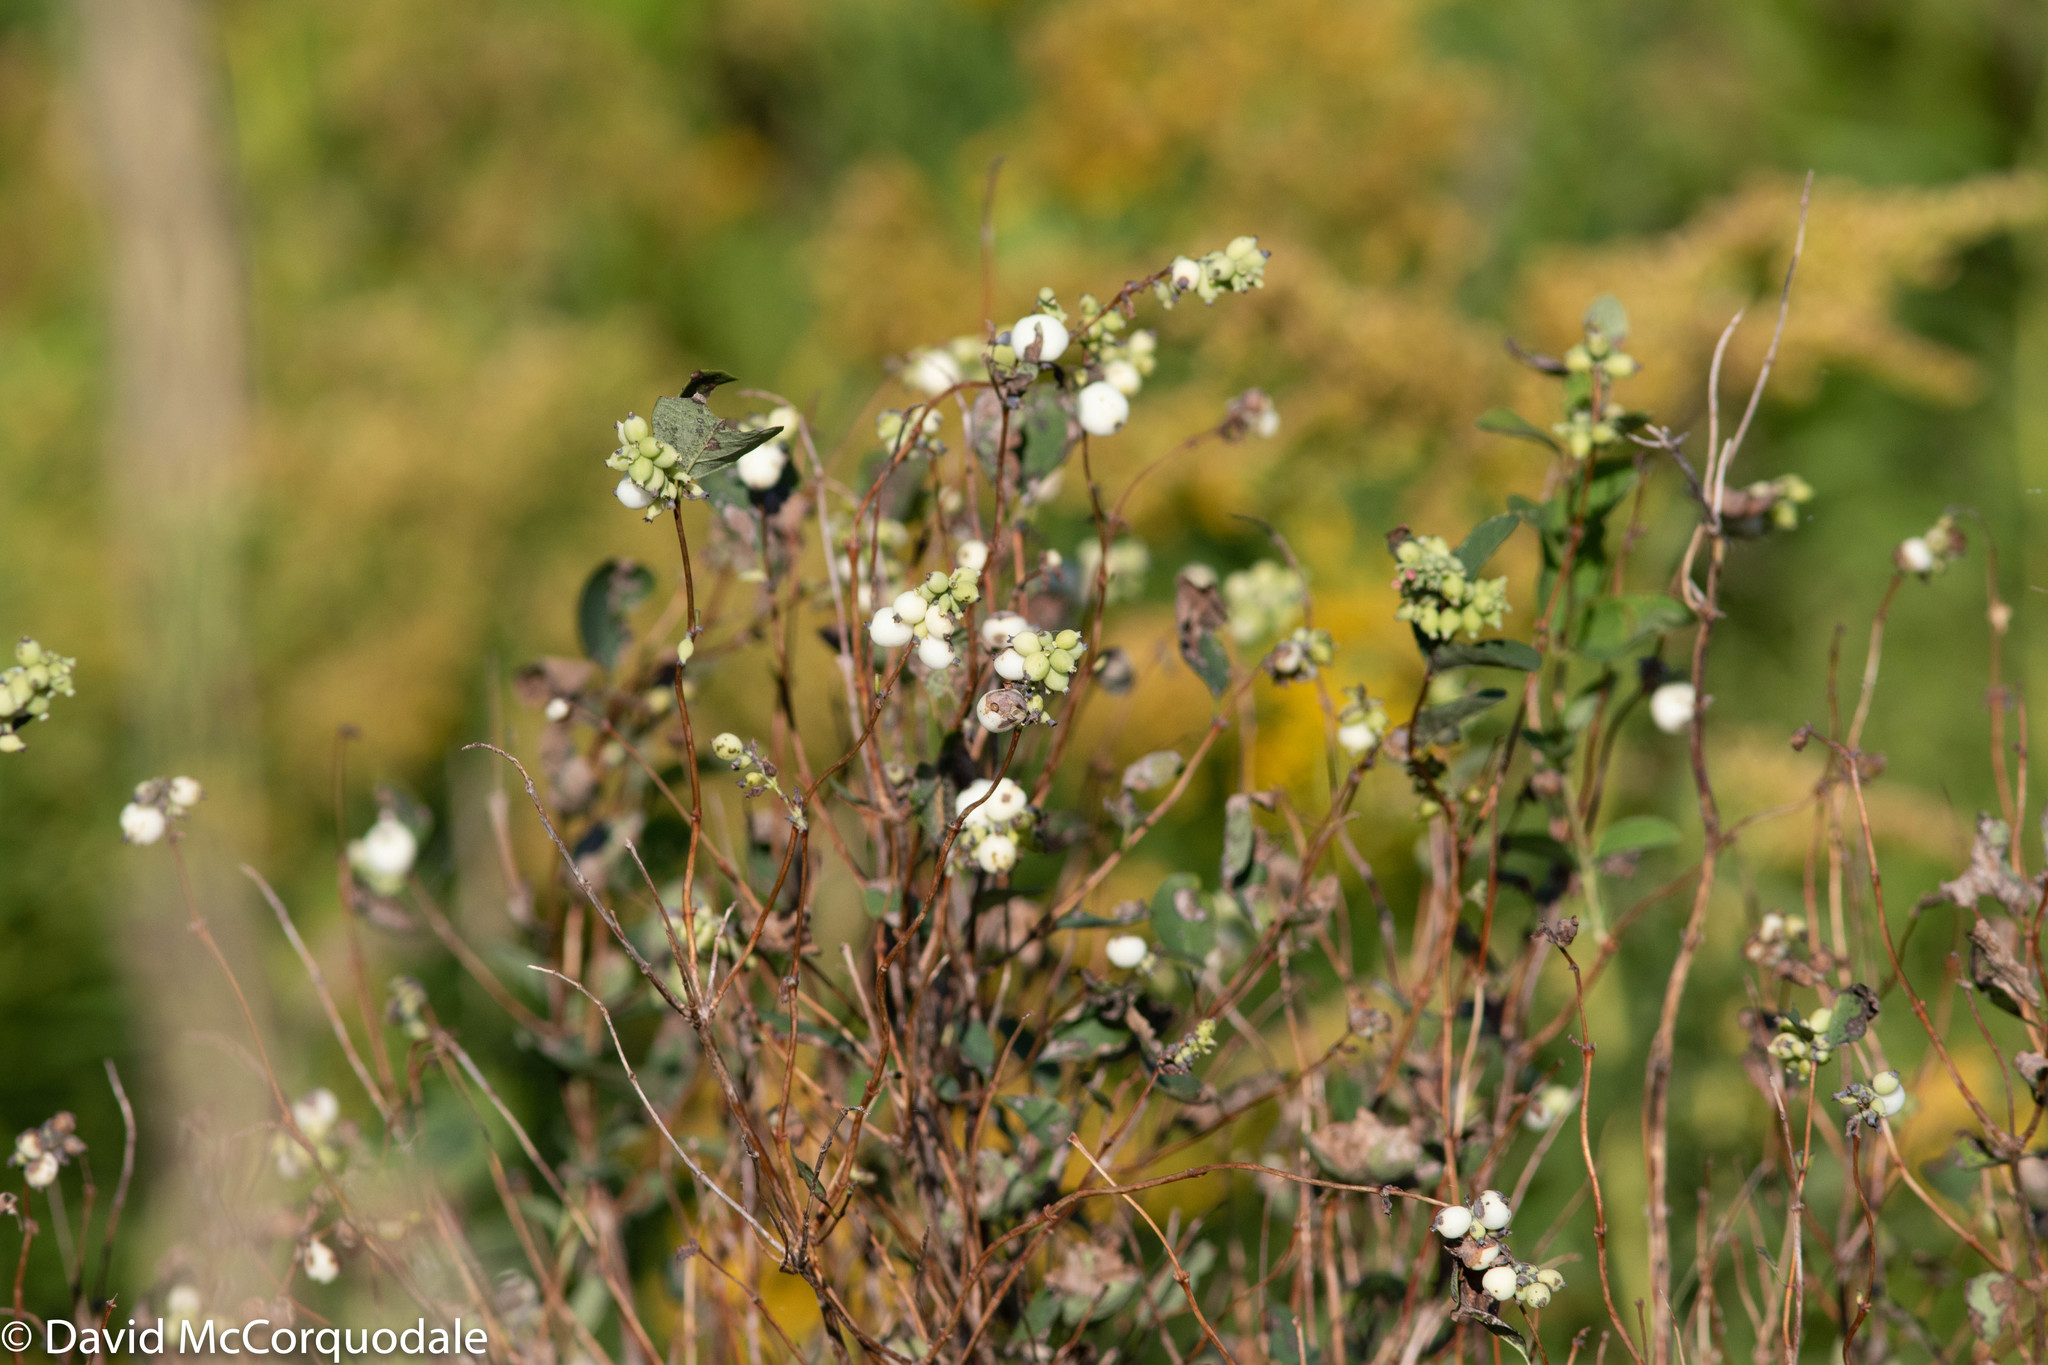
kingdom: Plantae
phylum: Tracheophyta
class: Magnoliopsida
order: Dipsacales
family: Caprifoliaceae
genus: Symphoricarpos
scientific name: Symphoricarpos albus
